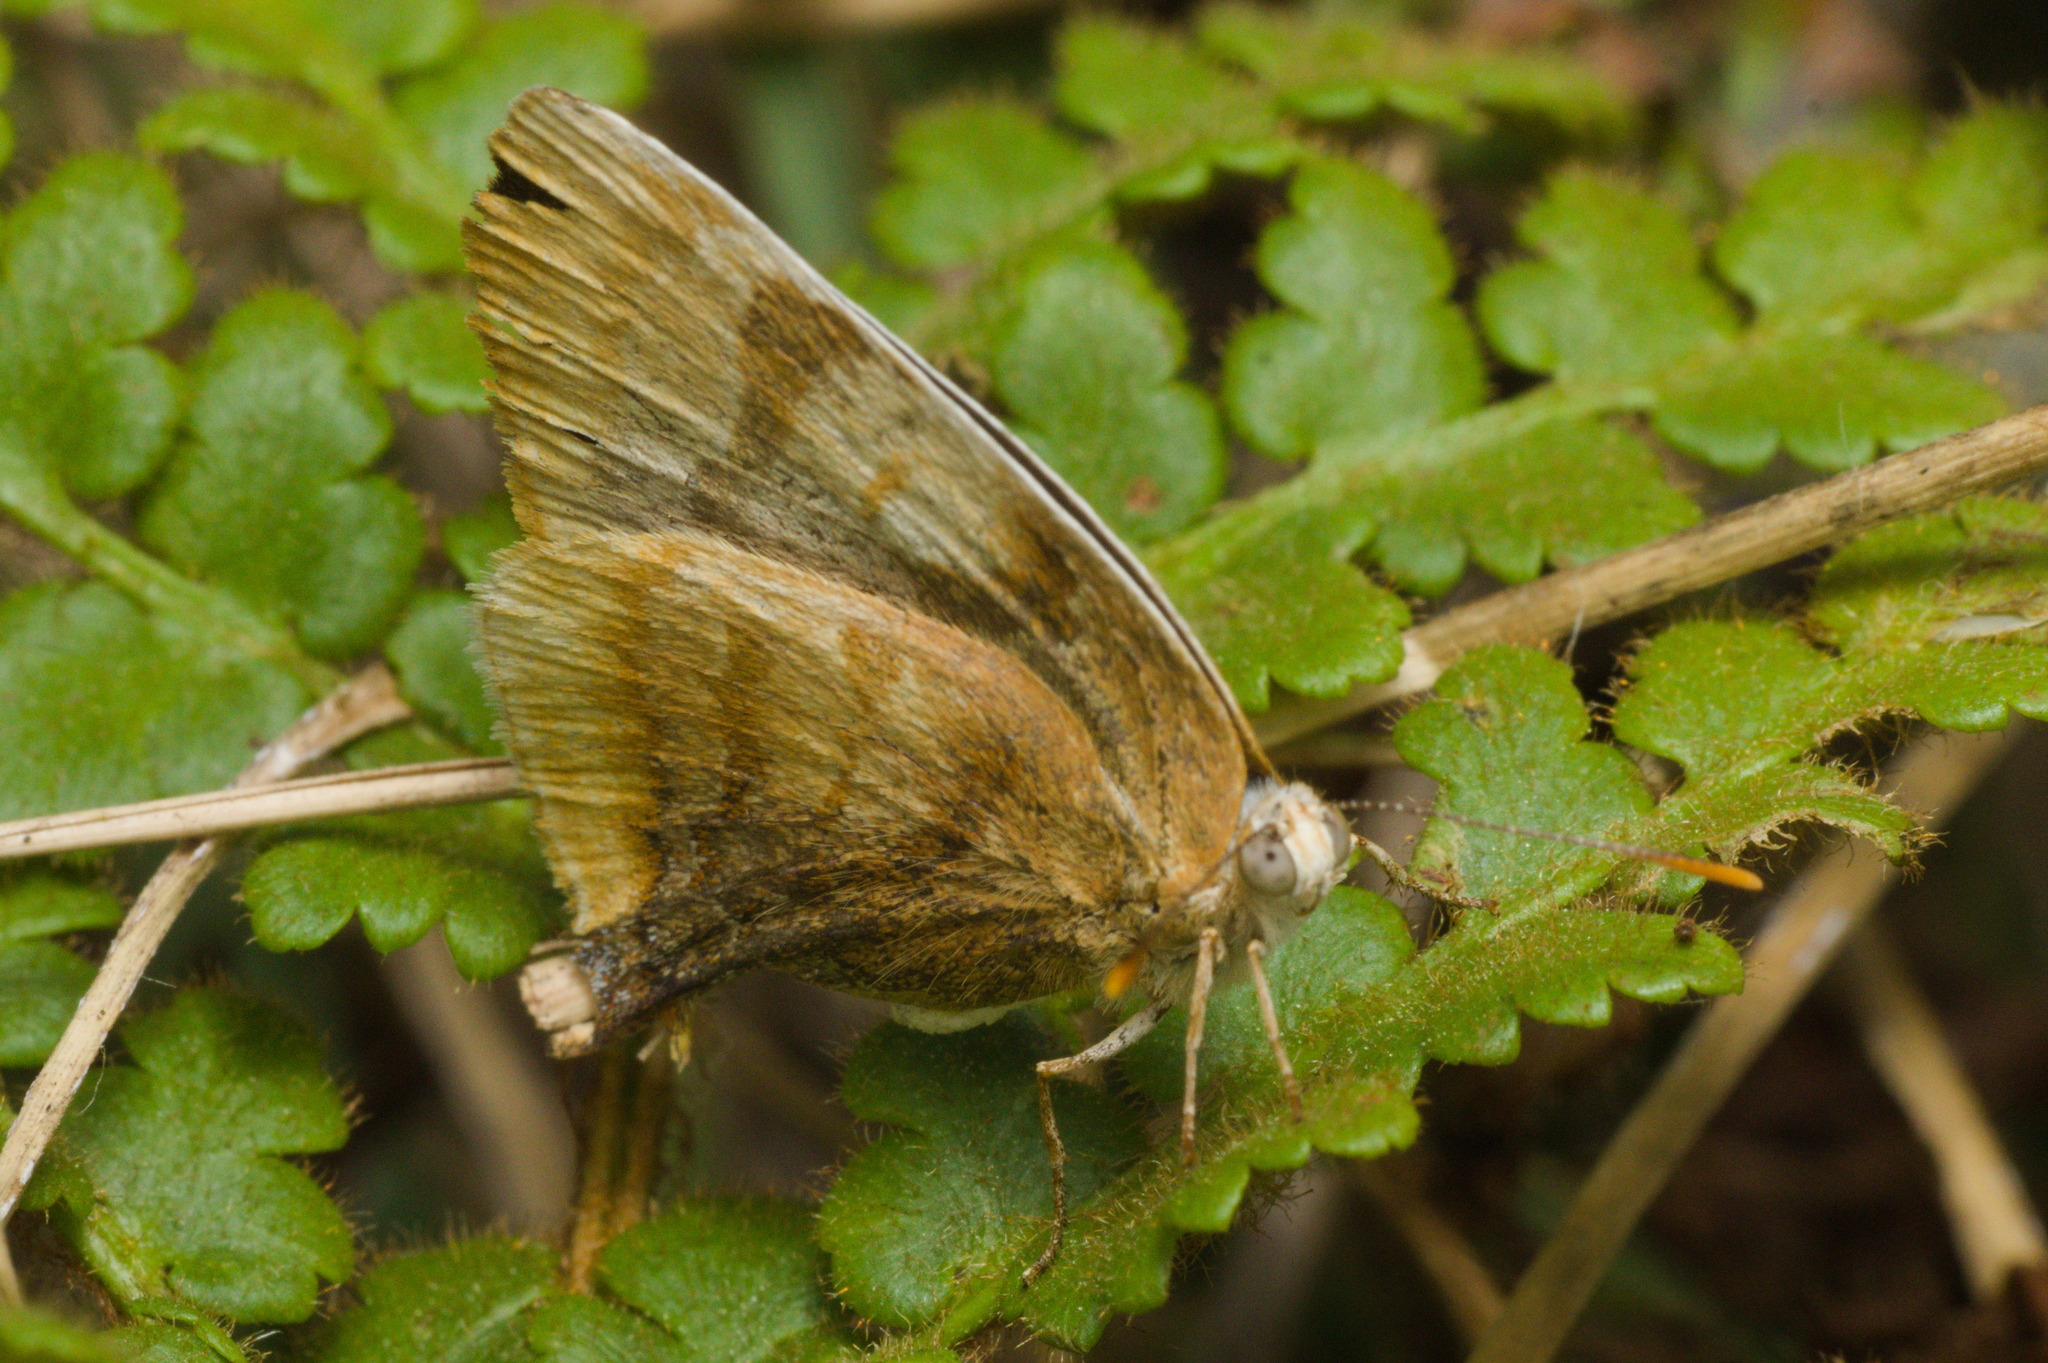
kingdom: Animalia
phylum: Arthropoda
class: Insecta
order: Lepidoptera
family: Lycaenidae
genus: Thecla
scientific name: Thecla marius
